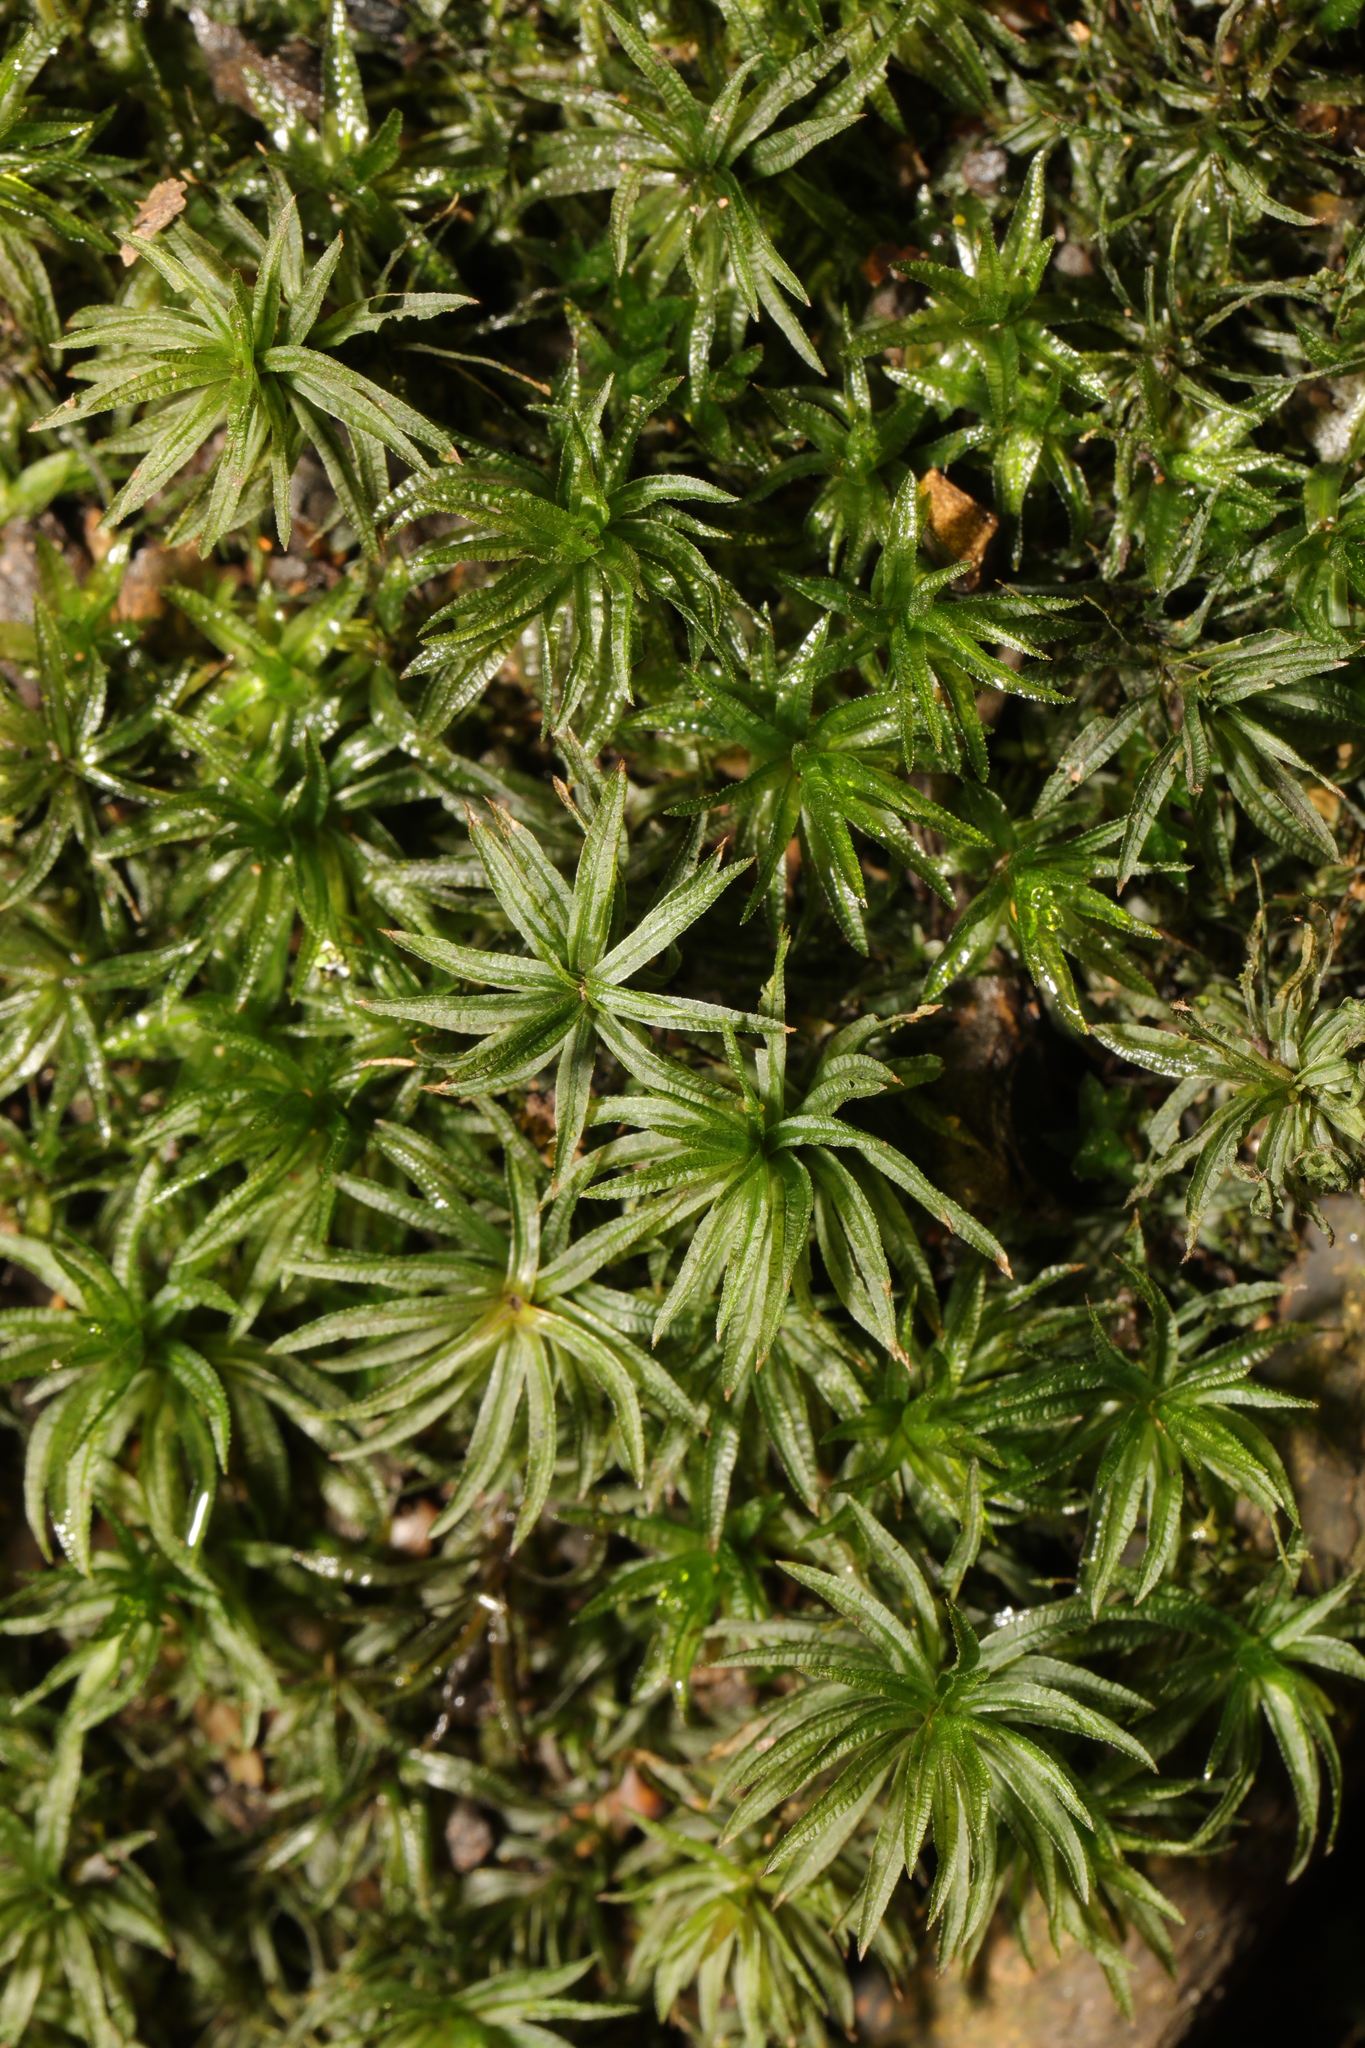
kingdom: Plantae
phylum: Bryophyta
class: Polytrichopsida
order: Polytrichales
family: Polytrichaceae
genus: Atrichum
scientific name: Atrichum undulatum
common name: Common smoothcap
